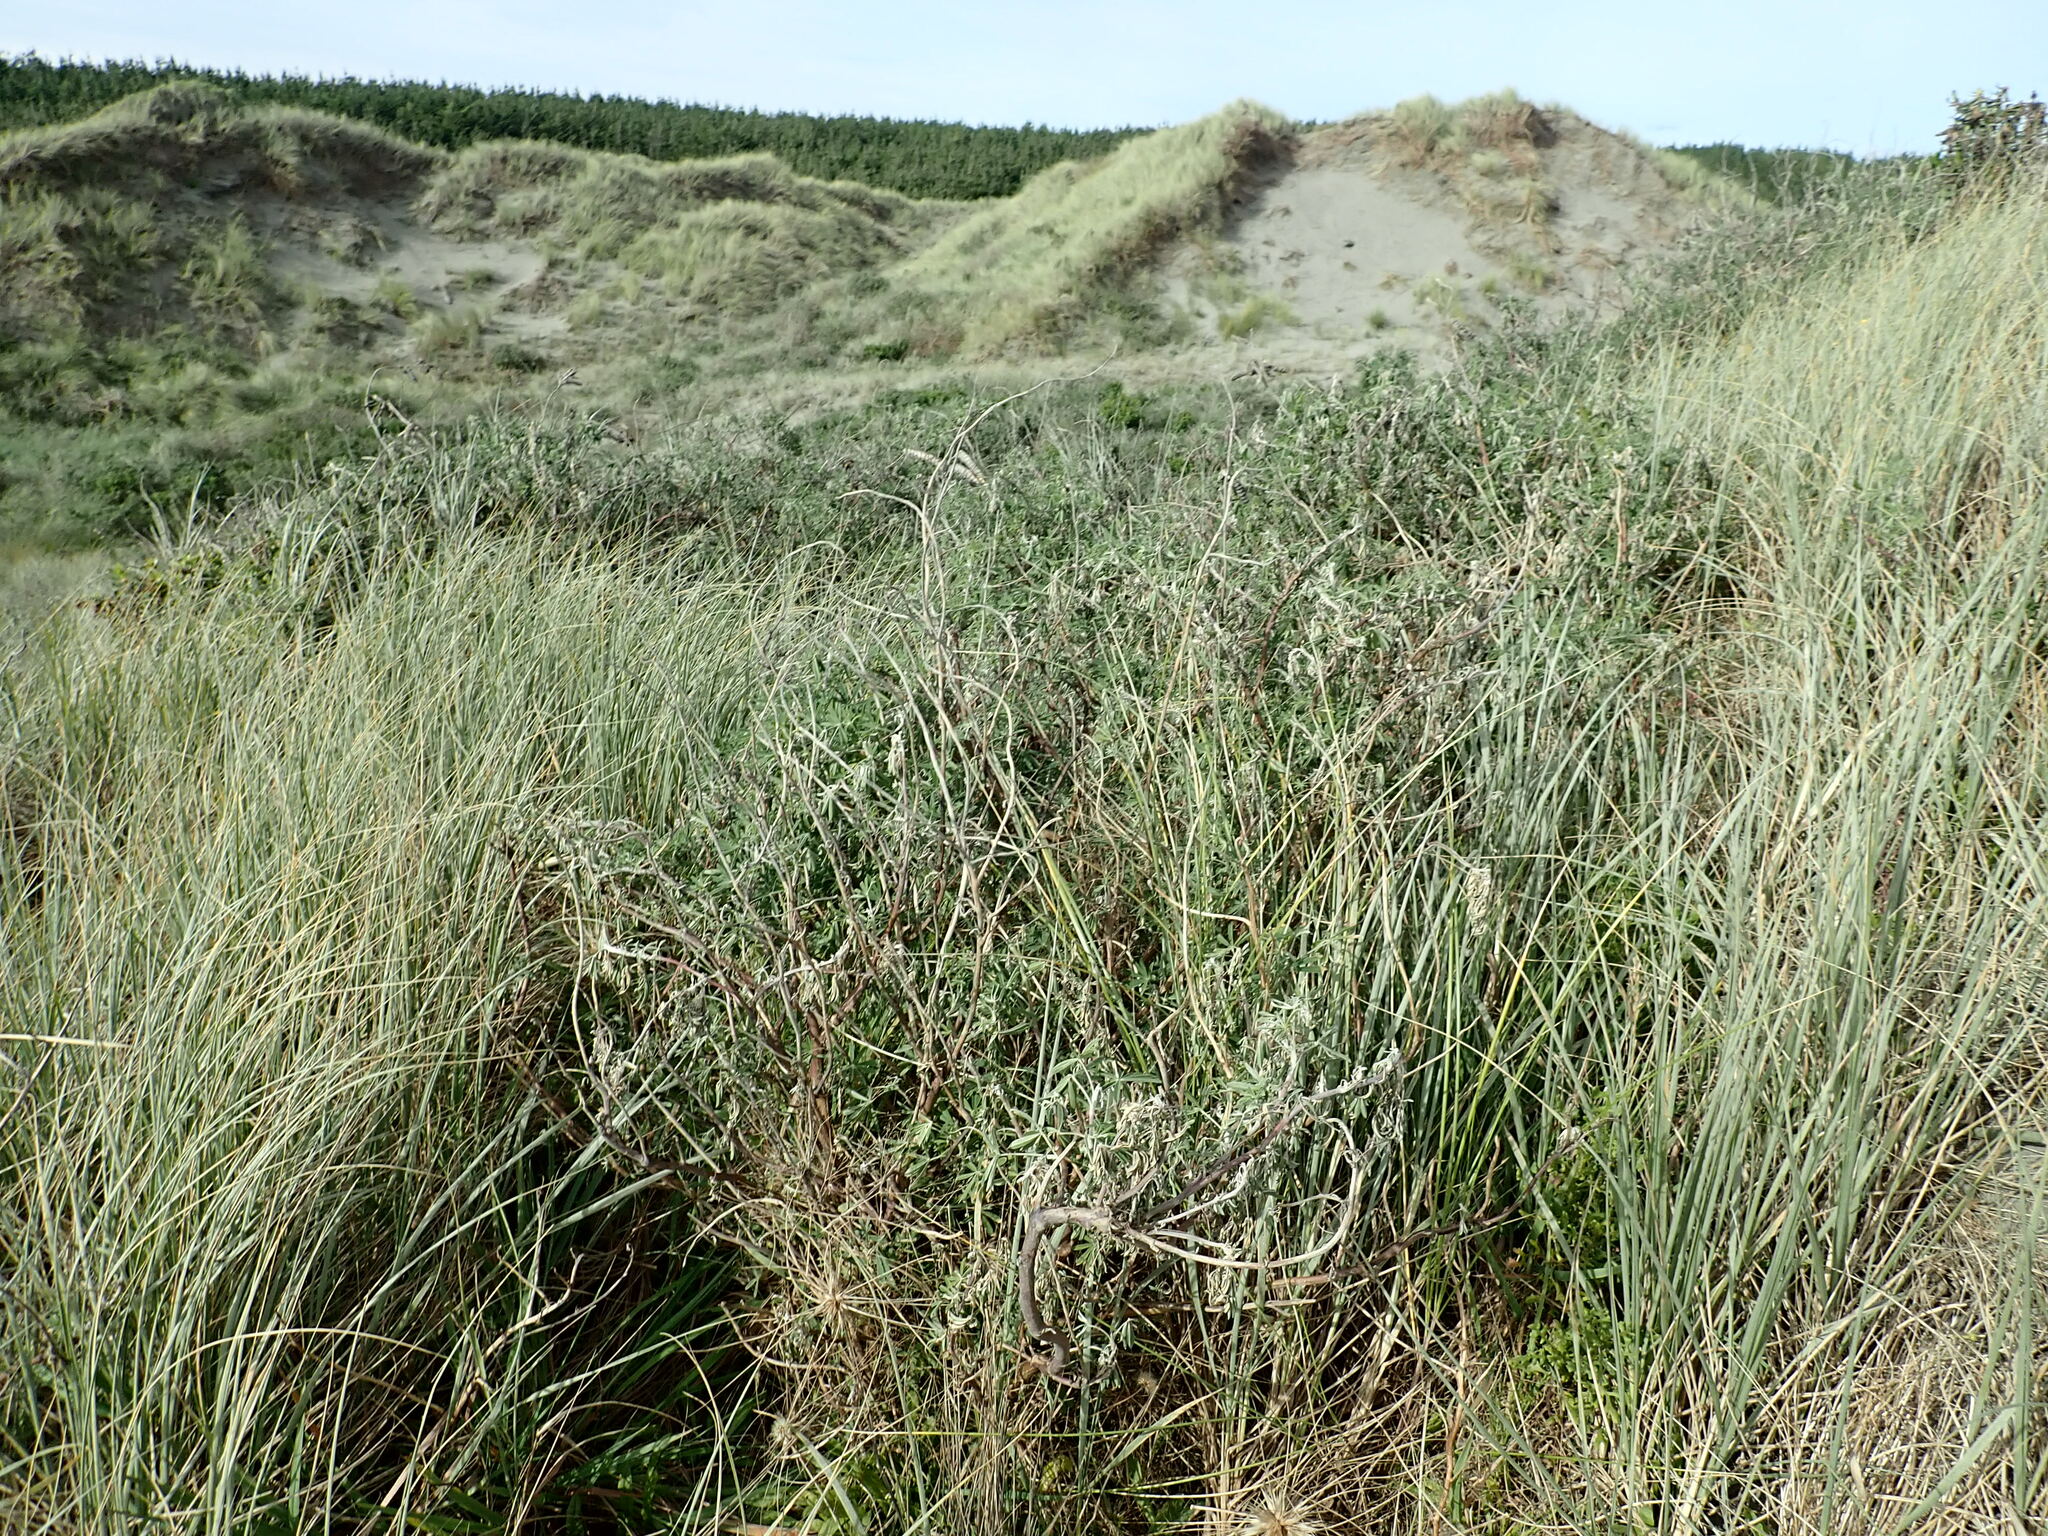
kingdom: Plantae
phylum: Tracheophyta
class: Magnoliopsida
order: Fabales
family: Fabaceae
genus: Lupinus
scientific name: Lupinus arboreus
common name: Yellow bush lupine
